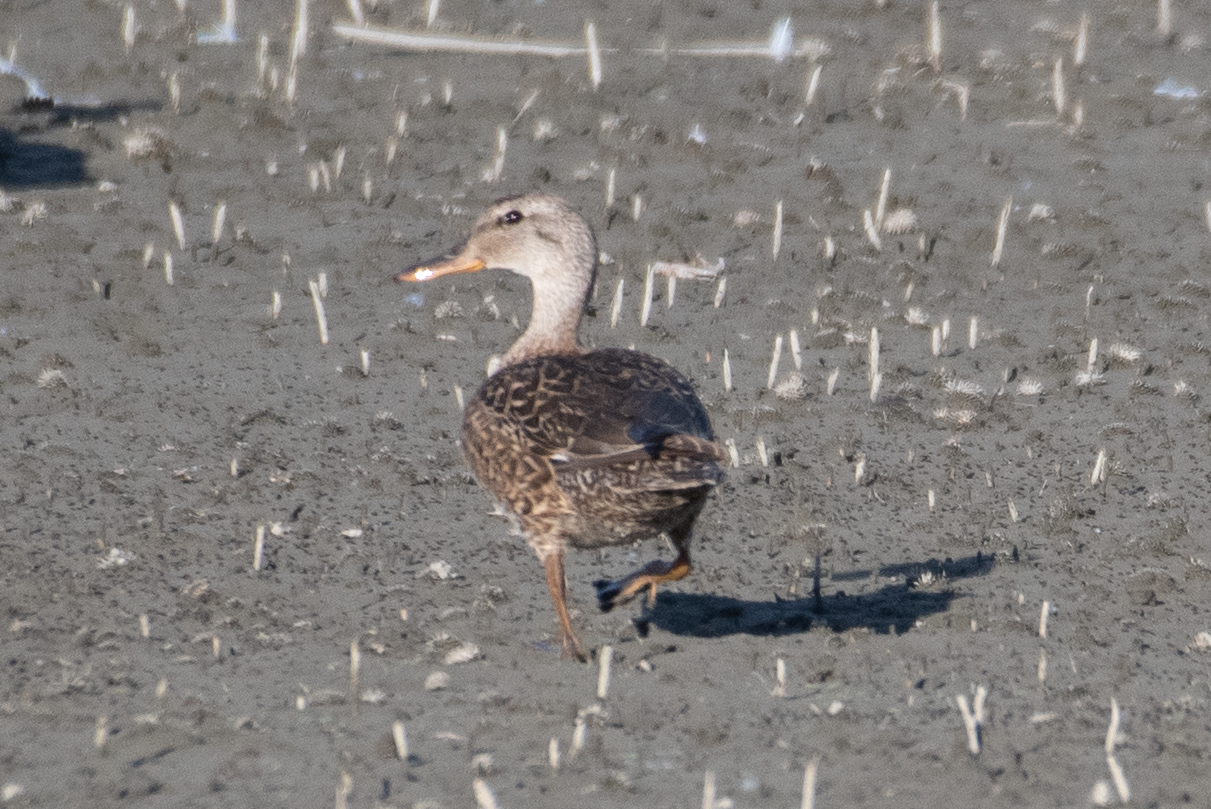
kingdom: Animalia
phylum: Chordata
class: Aves
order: Anseriformes
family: Anatidae
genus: Mareca
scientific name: Mareca strepera
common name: Gadwall
